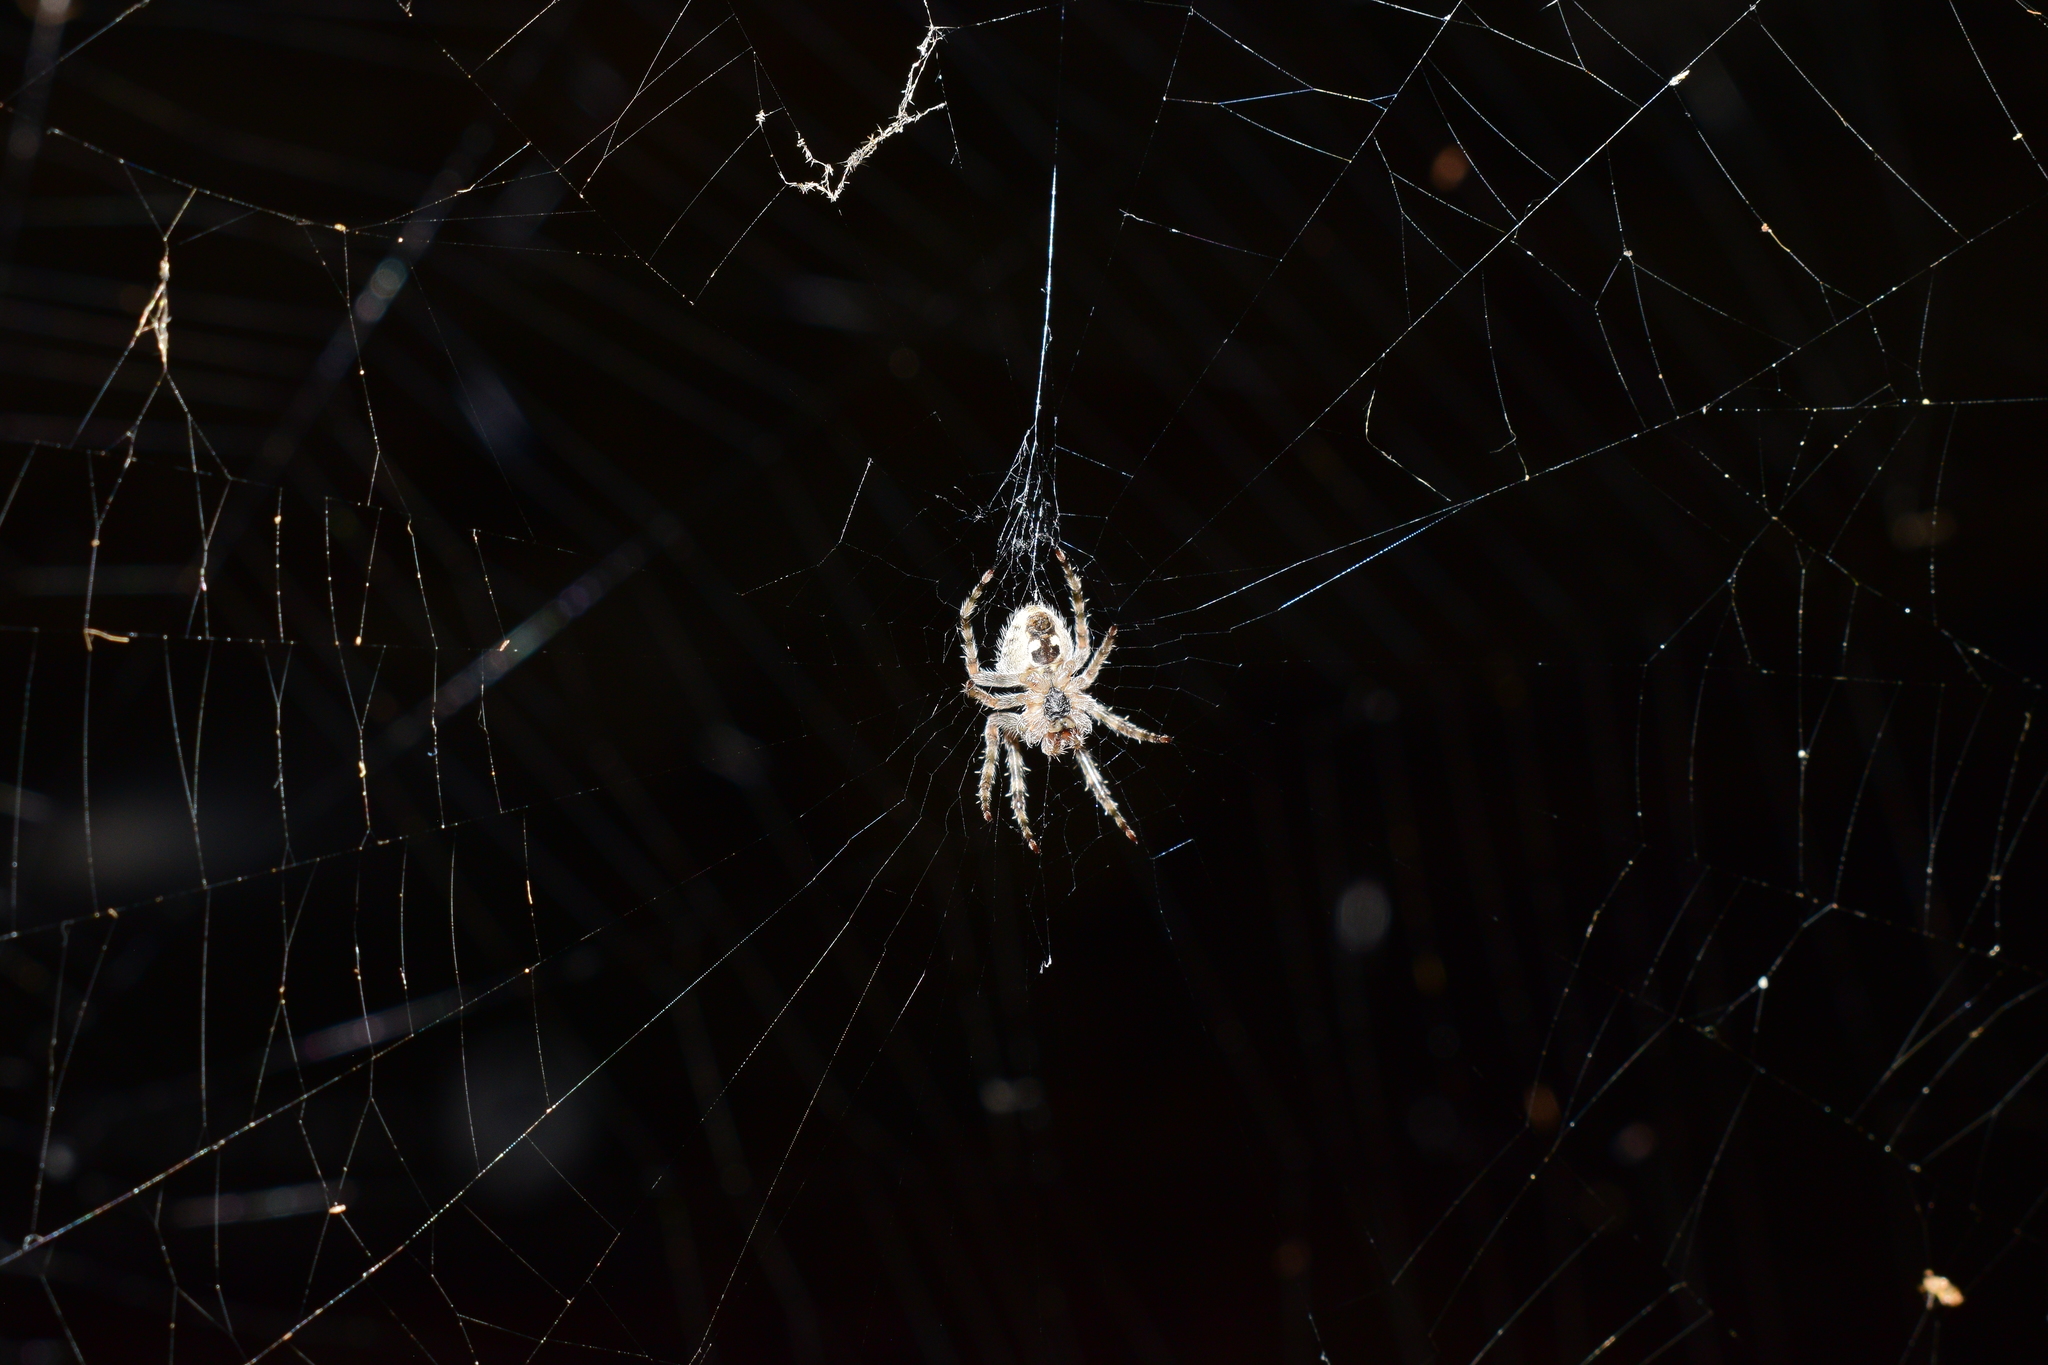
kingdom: Animalia
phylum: Arthropoda
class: Arachnida
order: Araneae
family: Araneidae
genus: Araneus
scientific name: Araneus cavaticus
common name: Barn orbweaver
